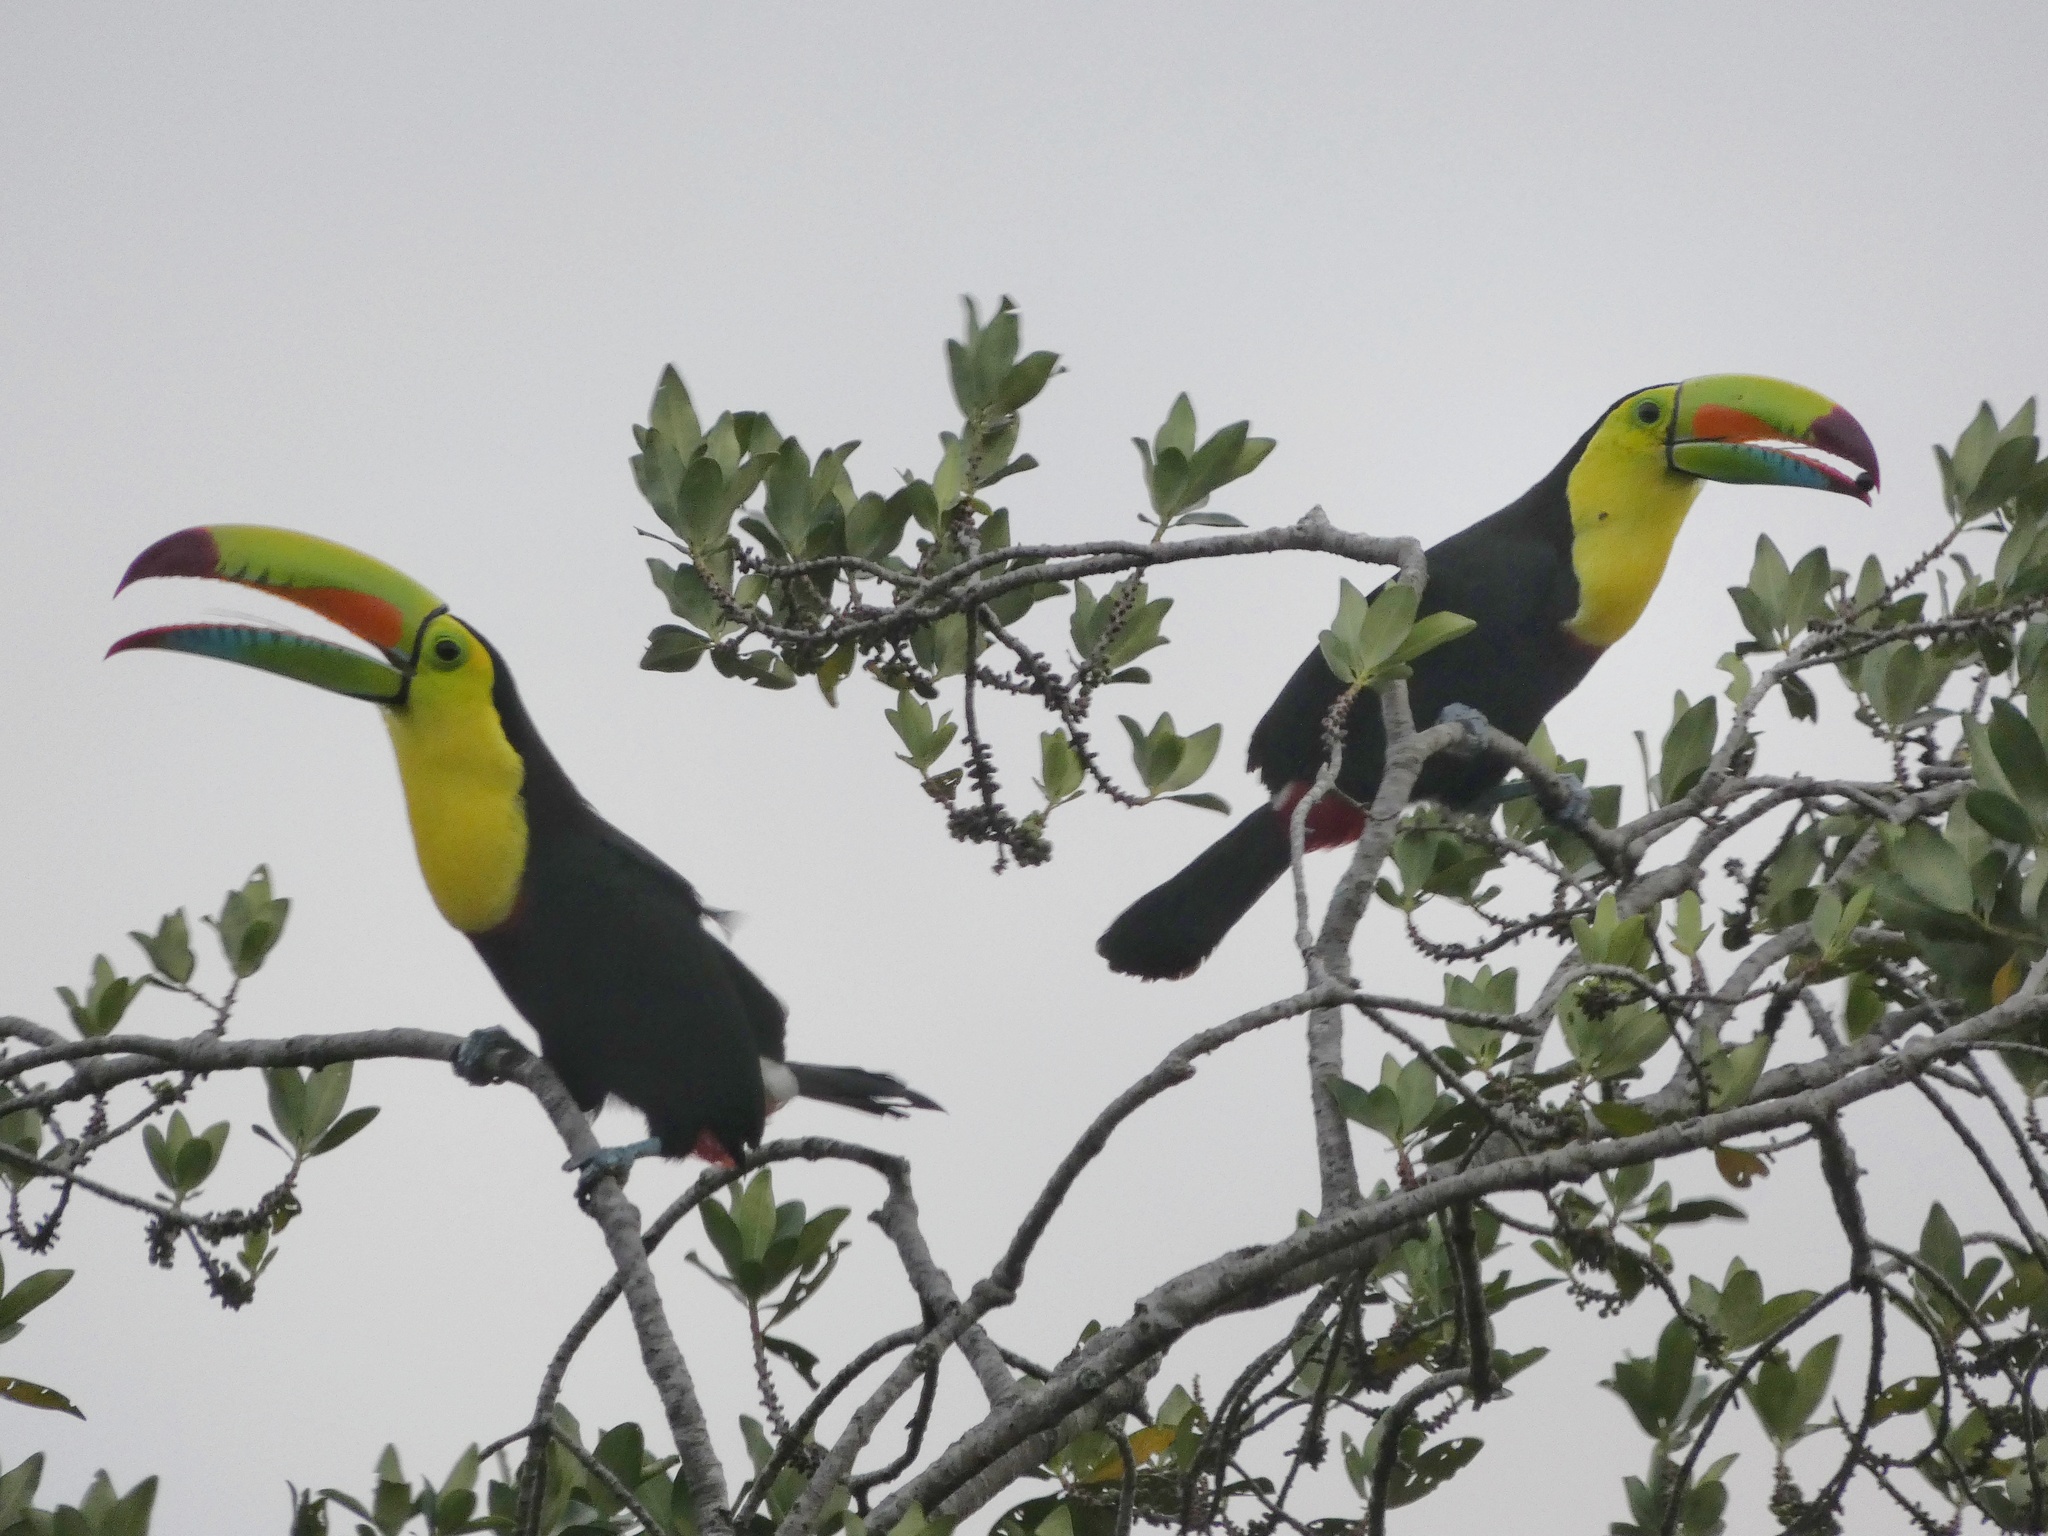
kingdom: Animalia
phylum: Chordata
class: Aves
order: Piciformes
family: Ramphastidae
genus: Ramphastos
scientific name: Ramphastos sulfuratus
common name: Keel-billed toucan
